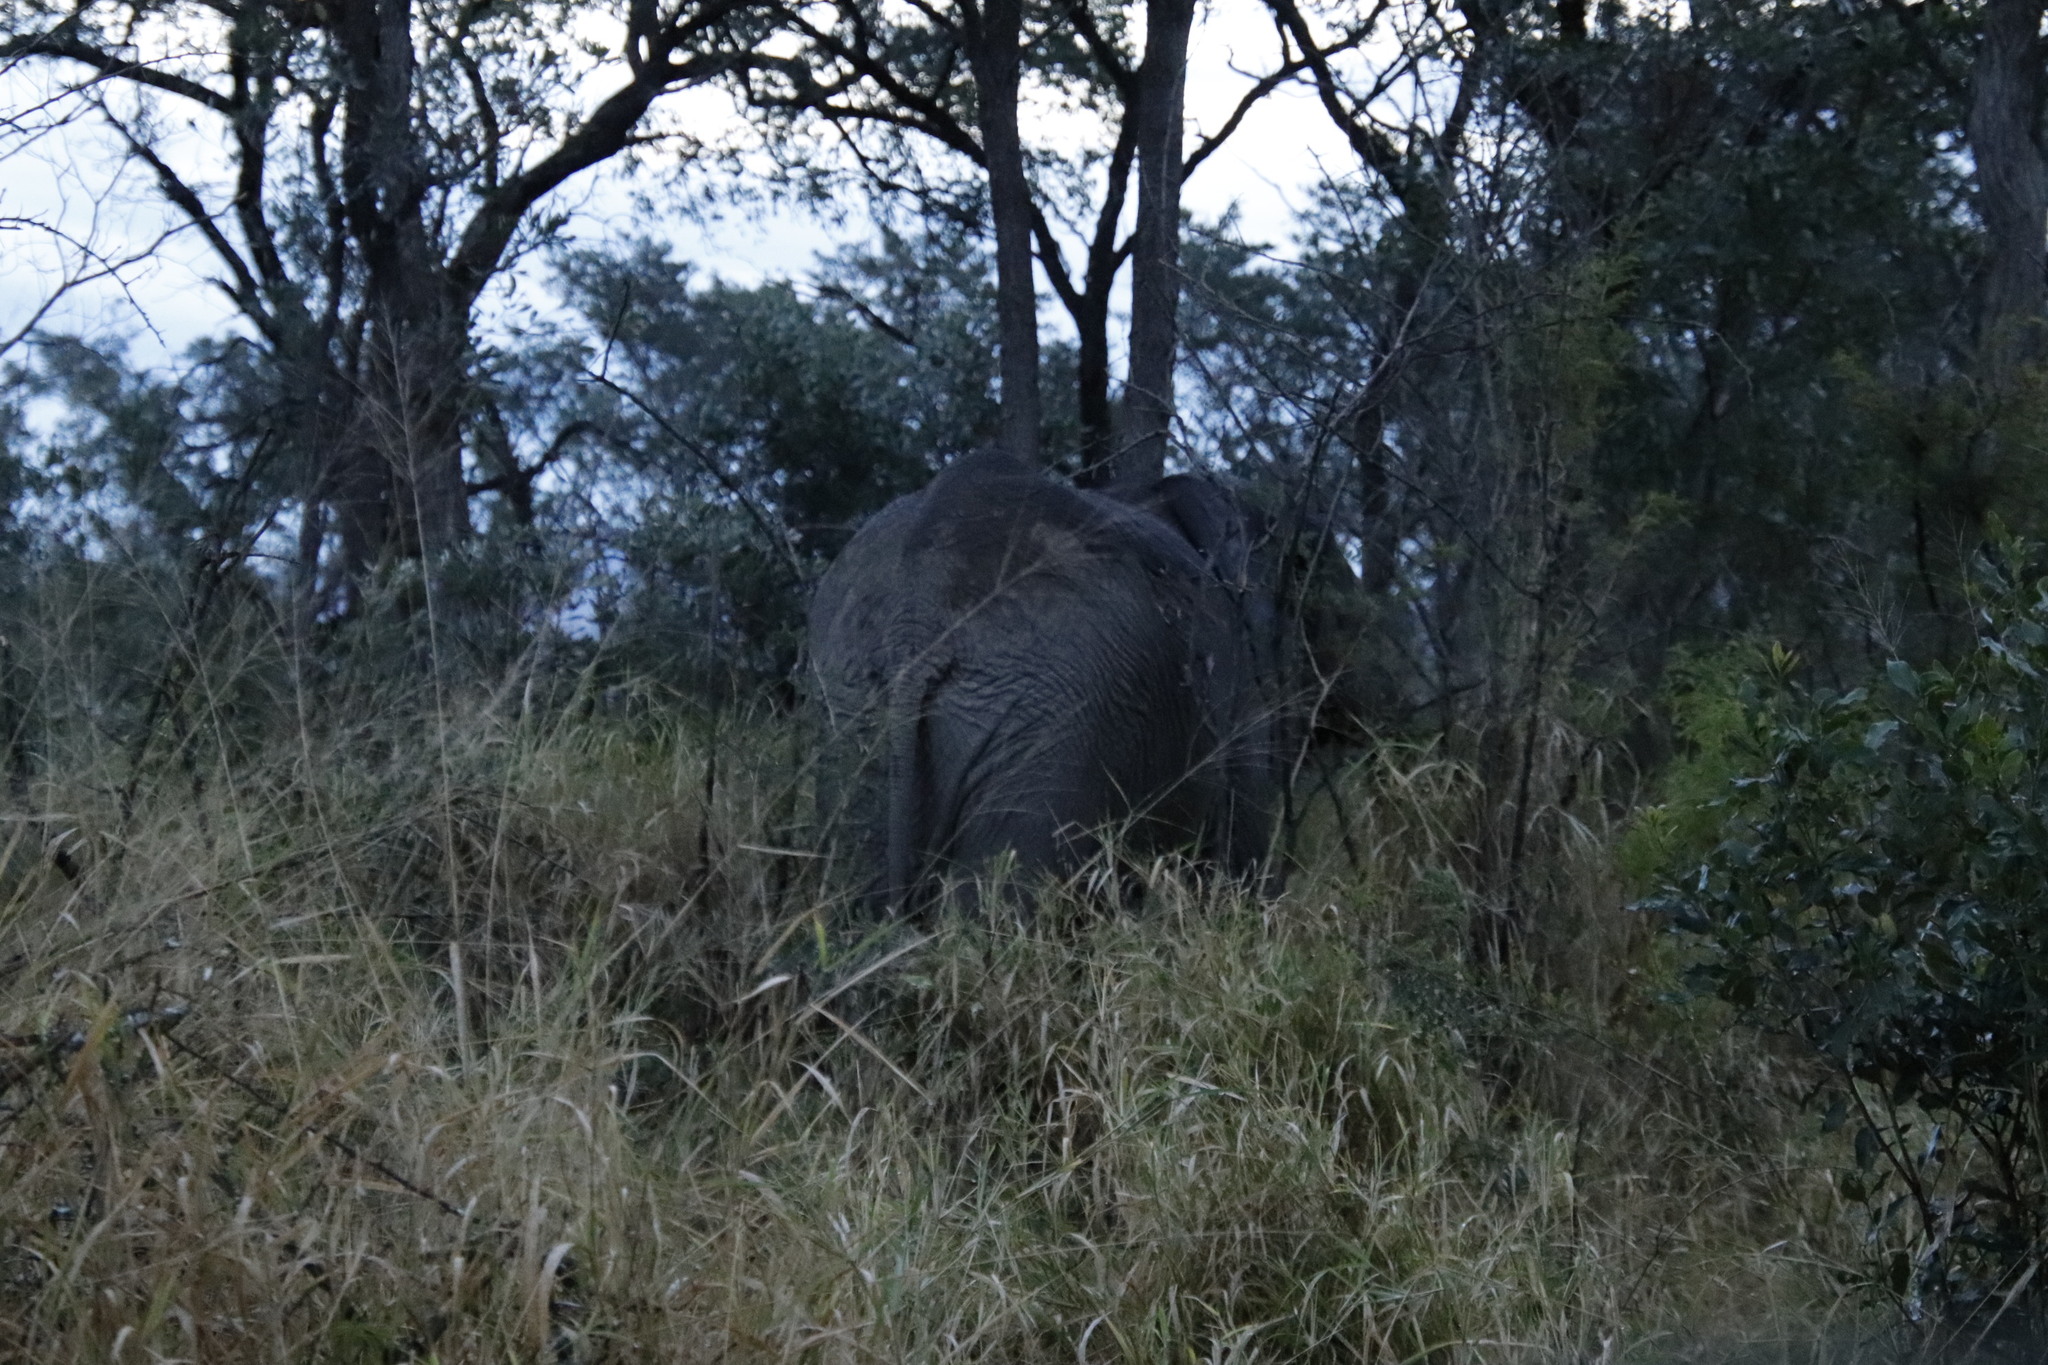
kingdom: Animalia
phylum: Chordata
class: Mammalia
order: Proboscidea
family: Elephantidae
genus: Loxodonta
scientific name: Loxodonta africana
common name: African elephant
